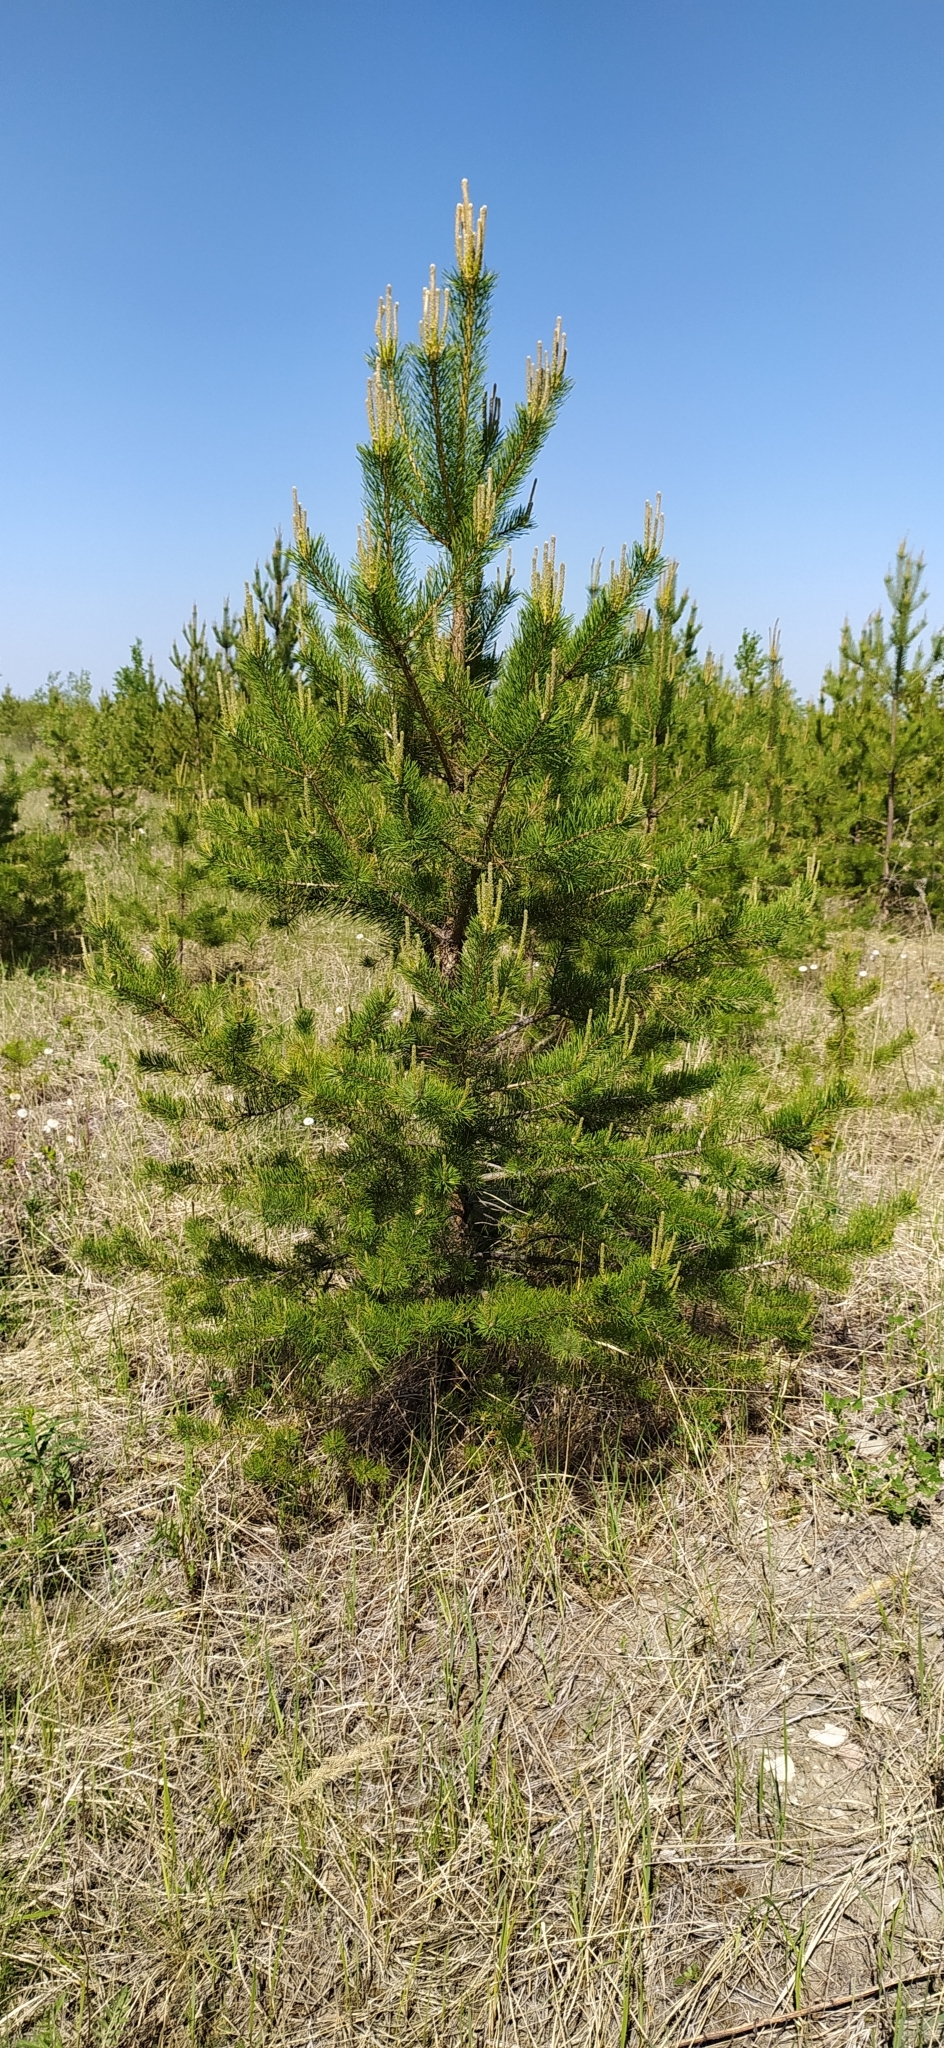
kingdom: Plantae
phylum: Tracheophyta
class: Pinopsida
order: Pinales
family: Pinaceae
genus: Pinus
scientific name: Pinus sylvestris
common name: Scots pine
